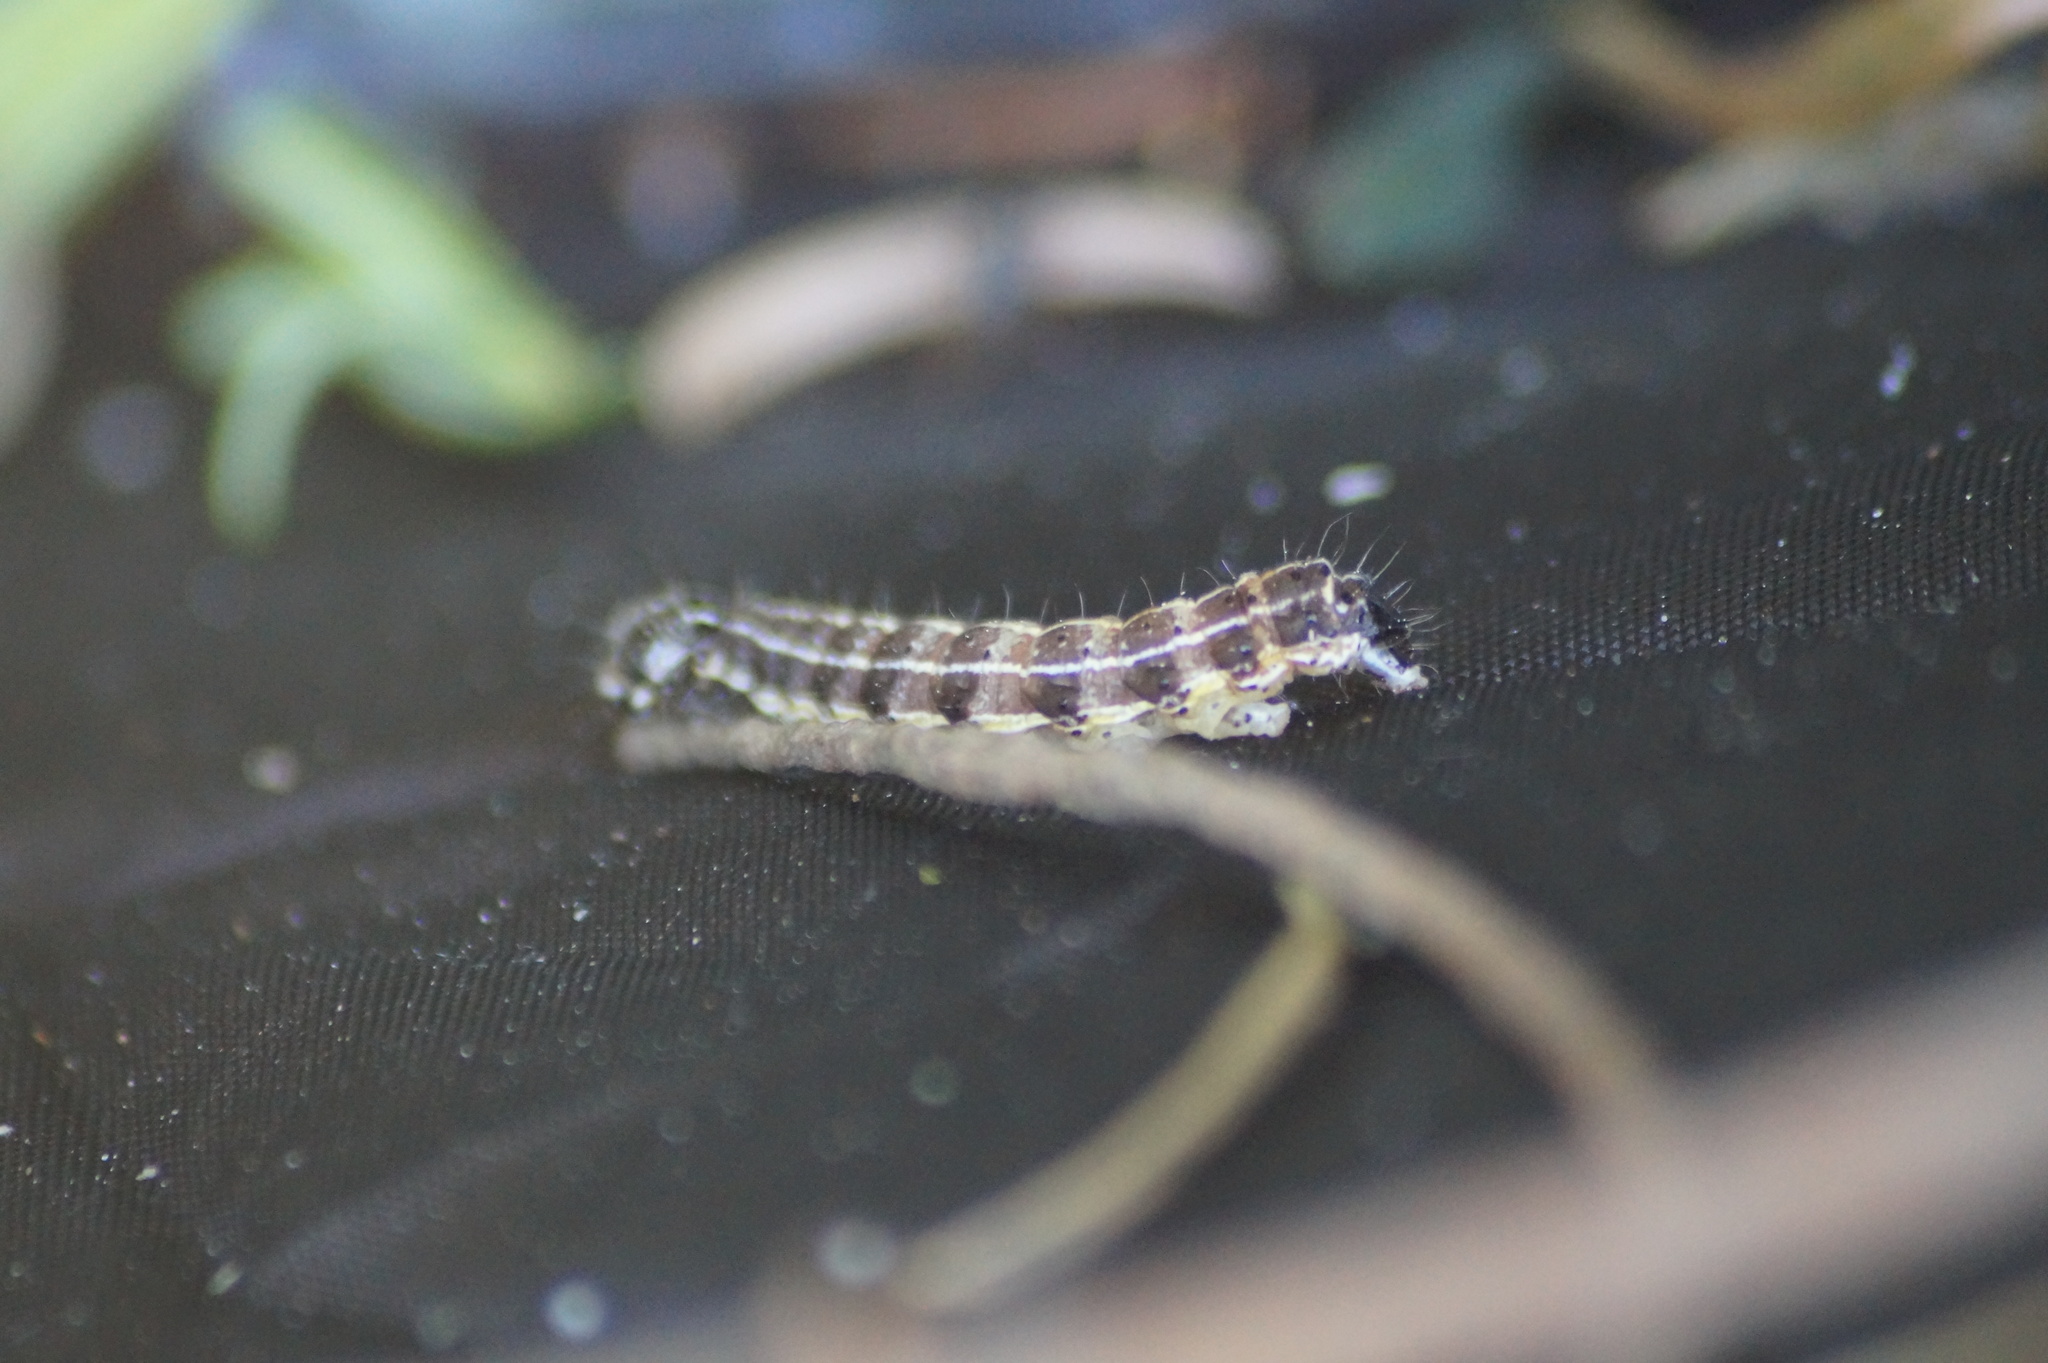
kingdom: Animalia
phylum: Arthropoda
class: Insecta
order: Lepidoptera
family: Noctuidae
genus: Orthosia
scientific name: Orthosia cruda
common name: Small quaker
